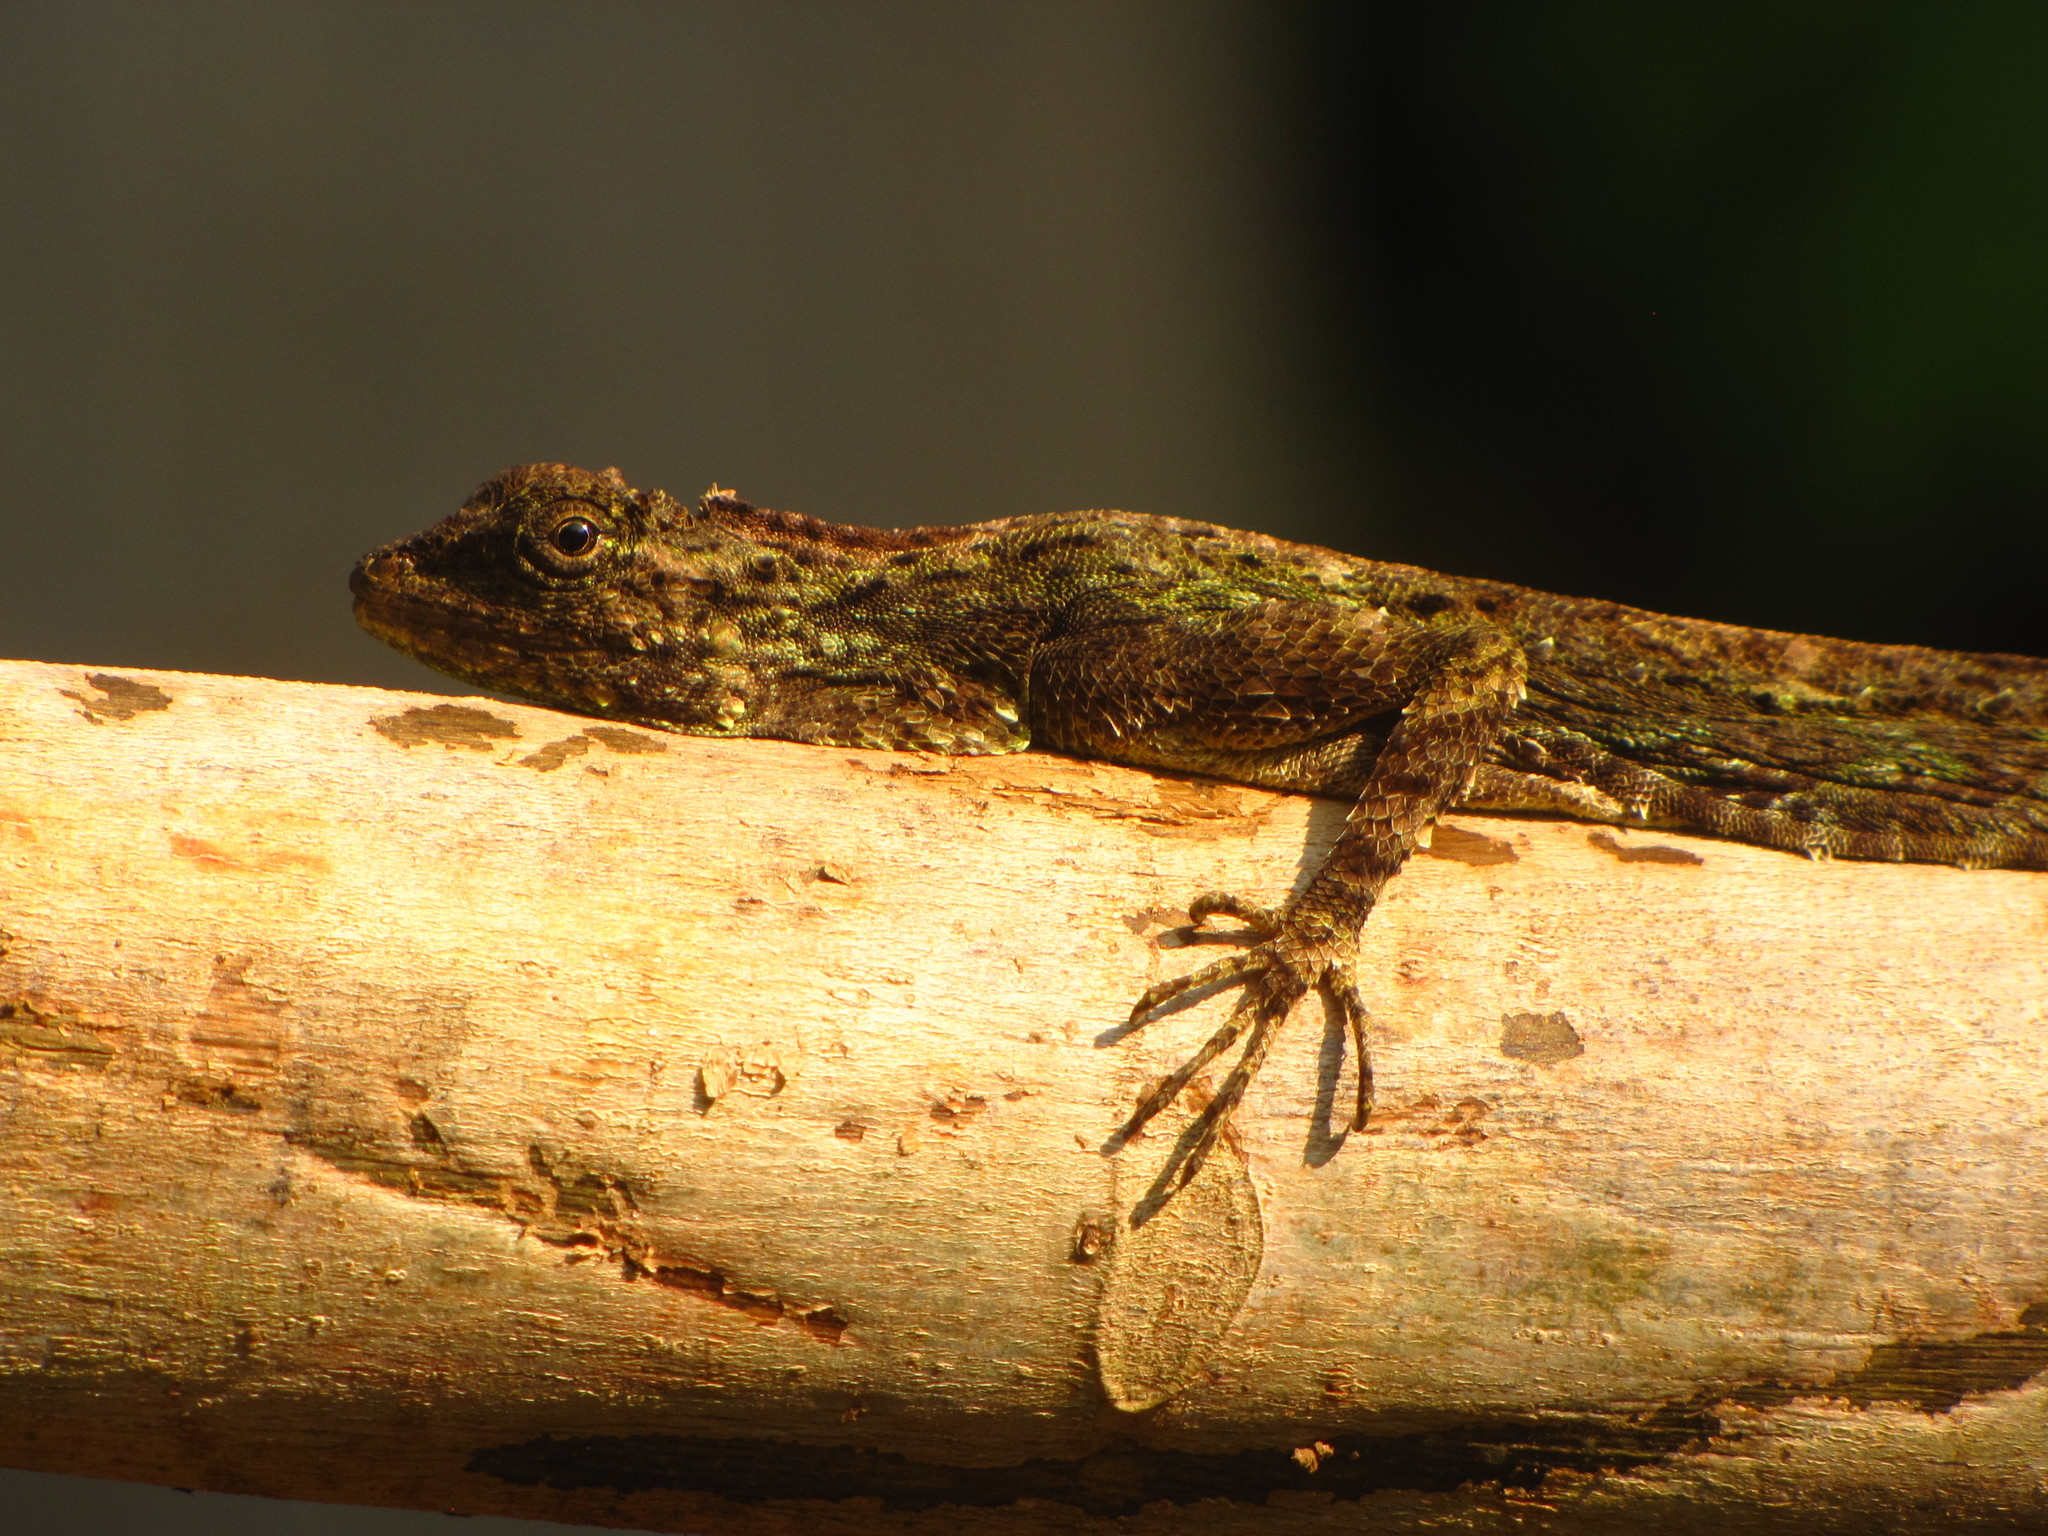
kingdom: Animalia
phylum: Chordata
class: Squamata
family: Agamidae
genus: Draco
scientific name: Draco norvillii
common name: Norvill's flying lizard
